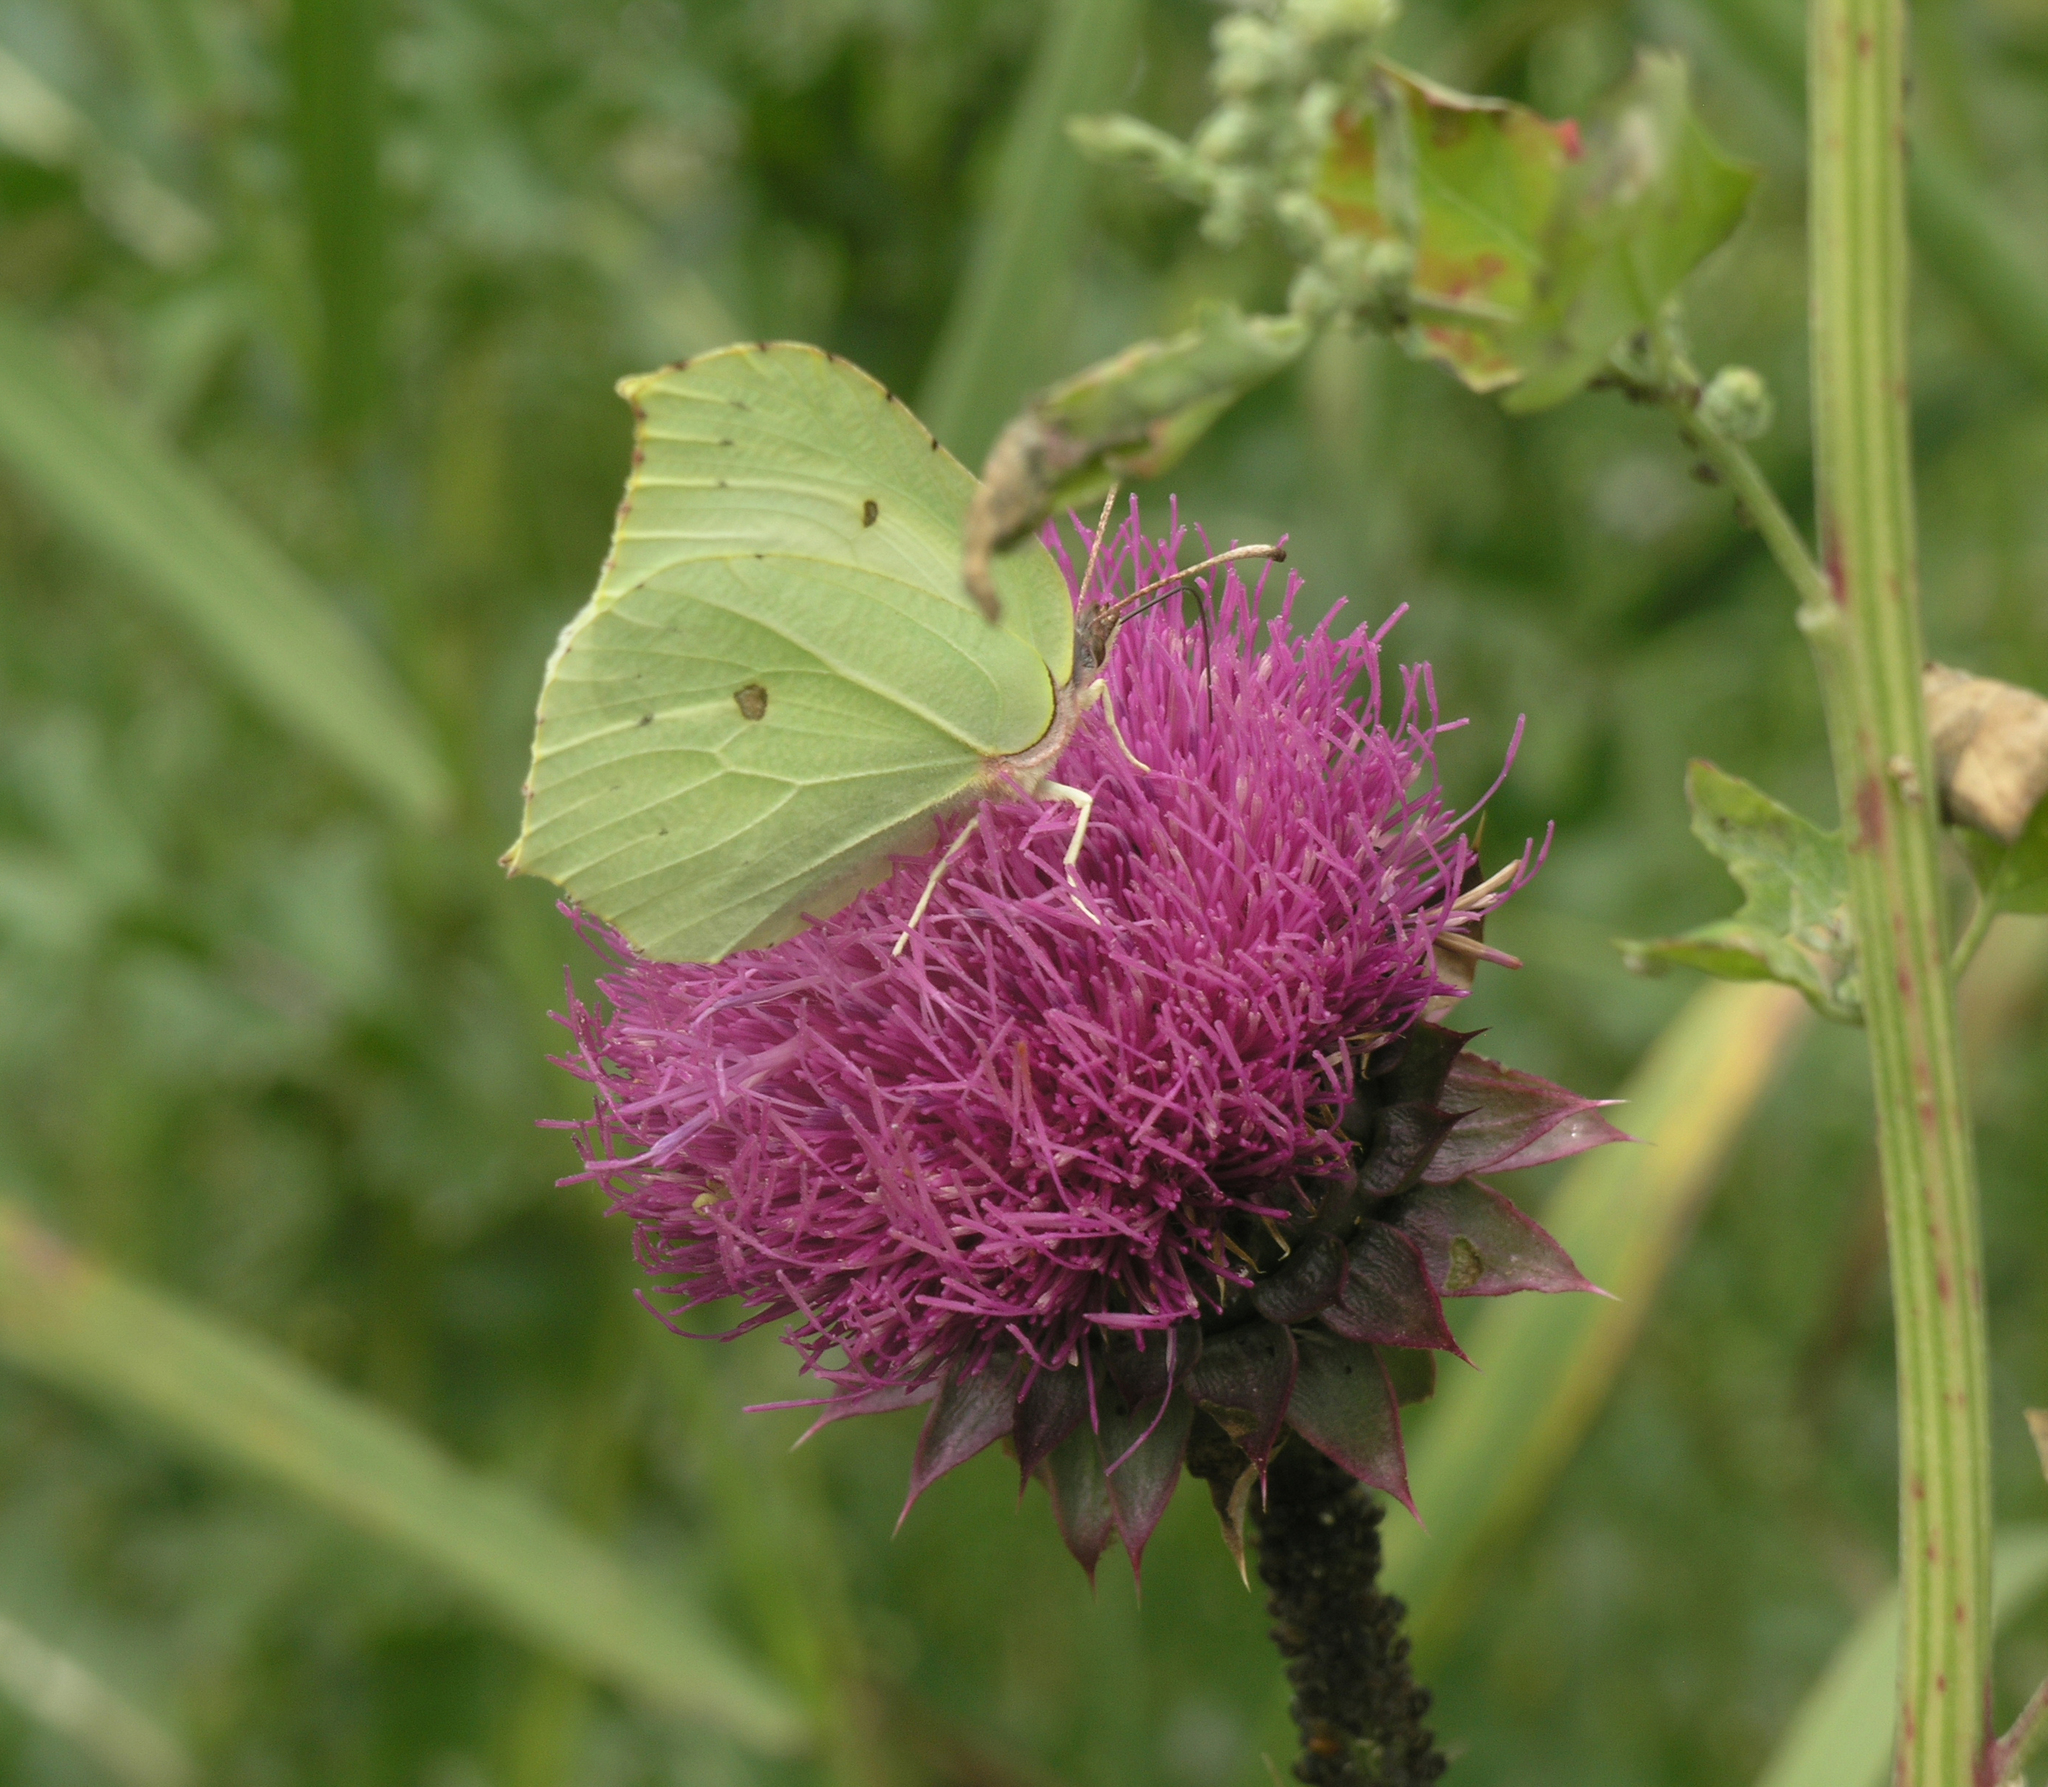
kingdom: Animalia
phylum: Arthropoda
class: Insecta
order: Lepidoptera
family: Pieridae
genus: Gonepteryx
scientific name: Gonepteryx rhamni
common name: Brimstone
